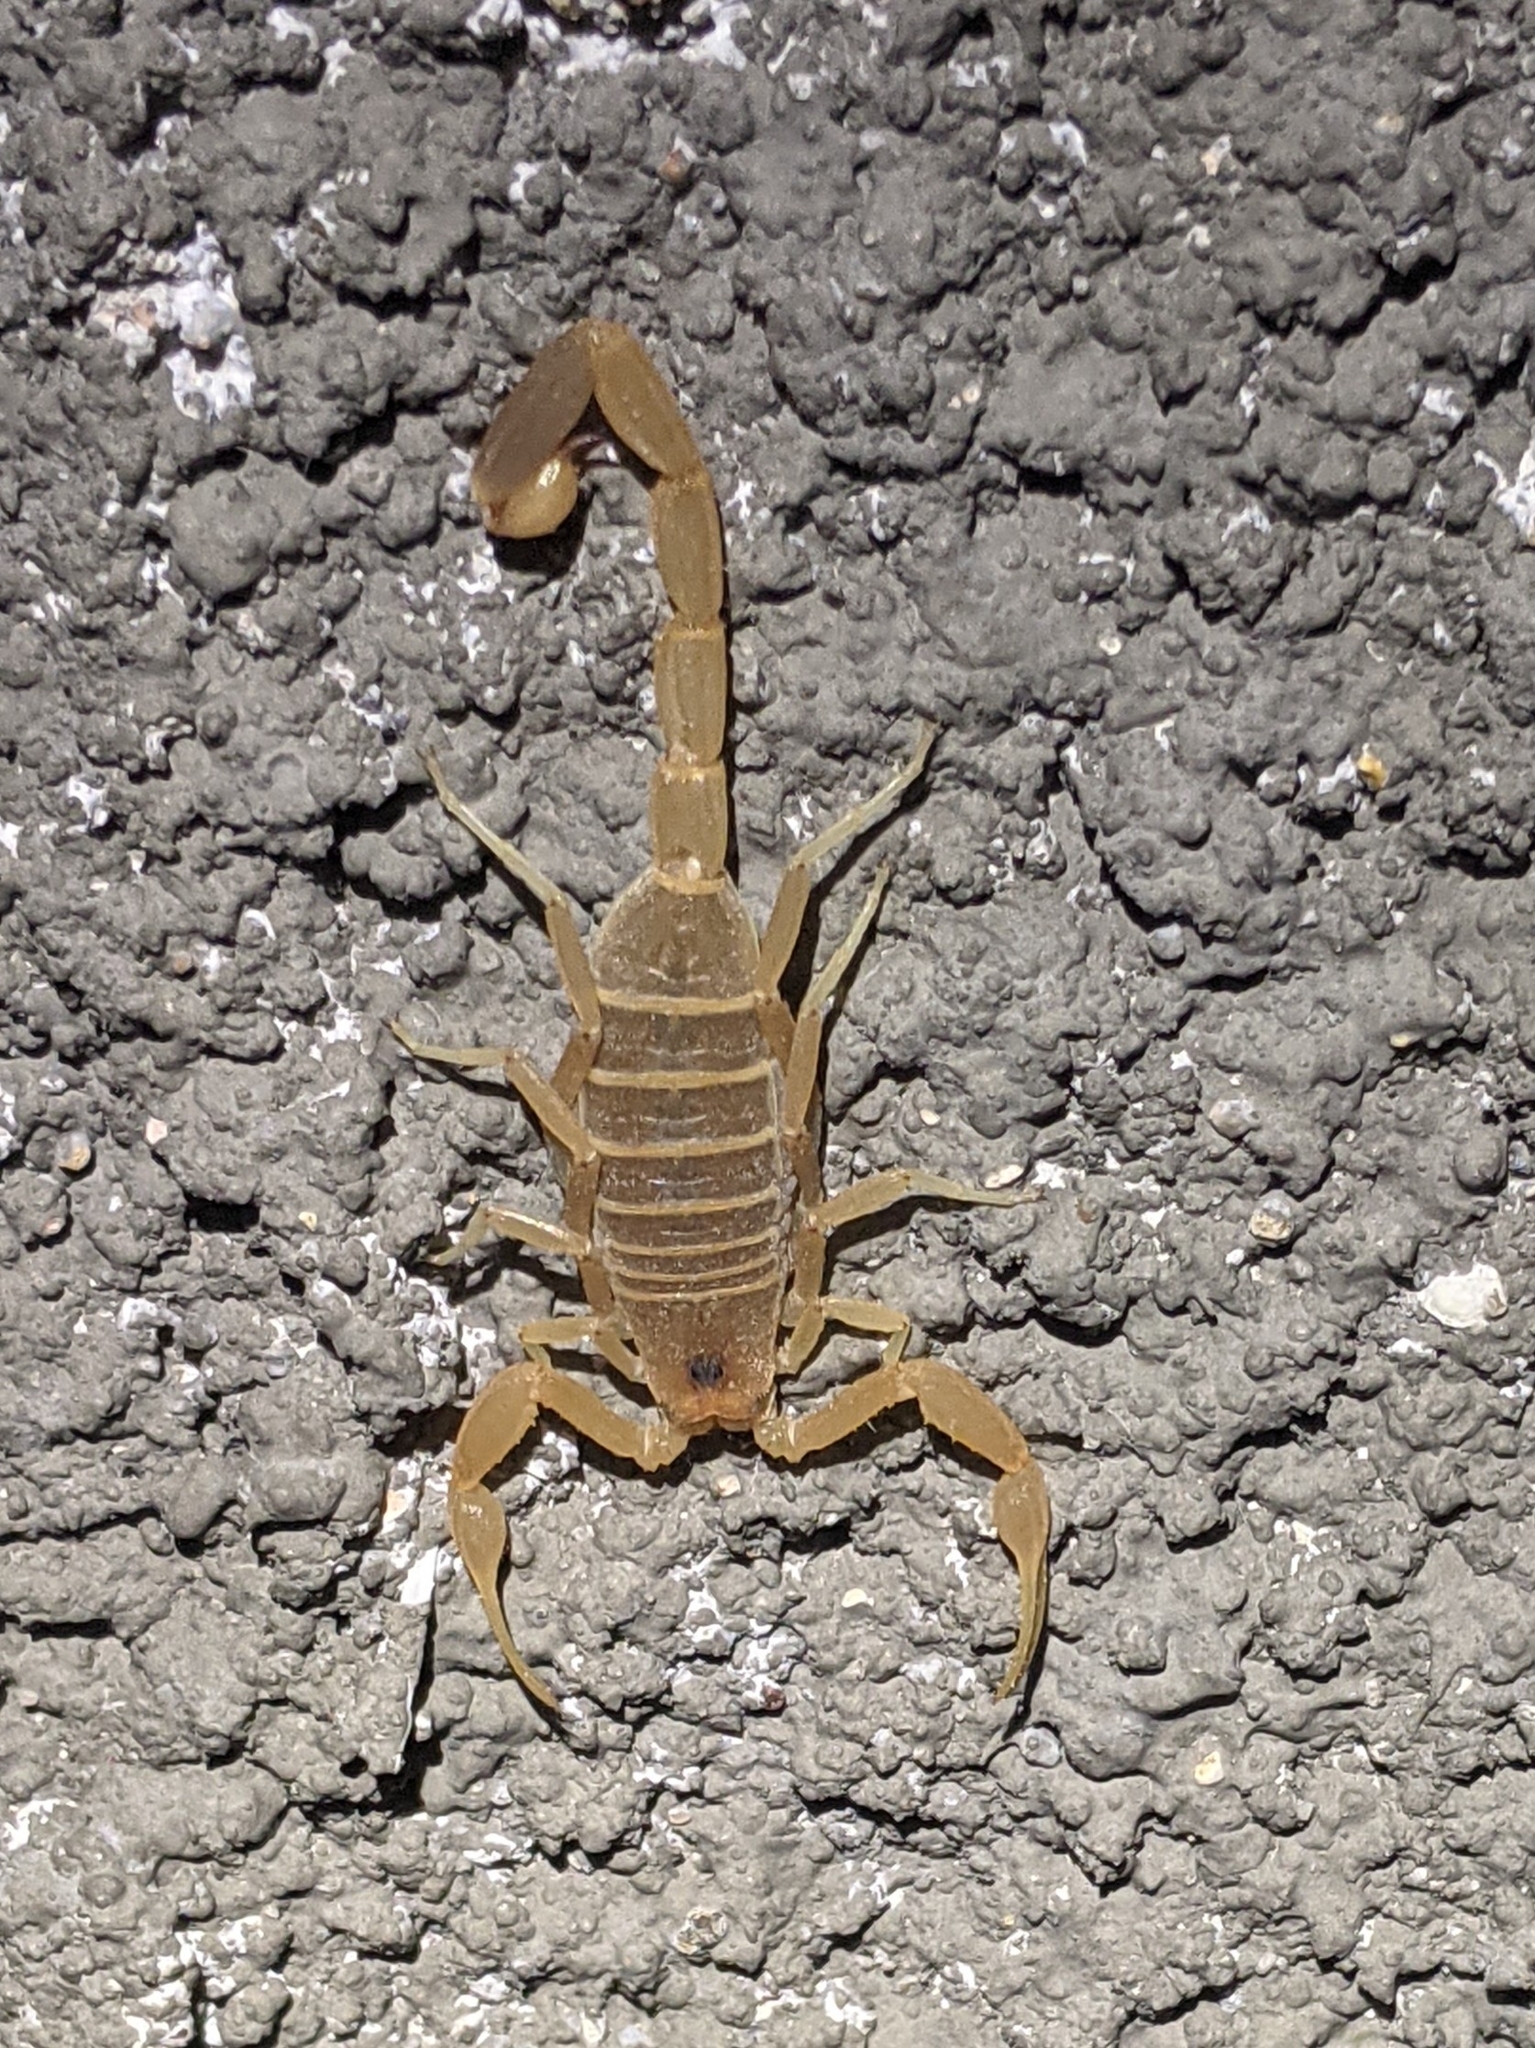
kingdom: Animalia
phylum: Arthropoda
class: Arachnida
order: Scorpiones
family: Buthidae
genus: Centruroides
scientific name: Centruroides vittatus
